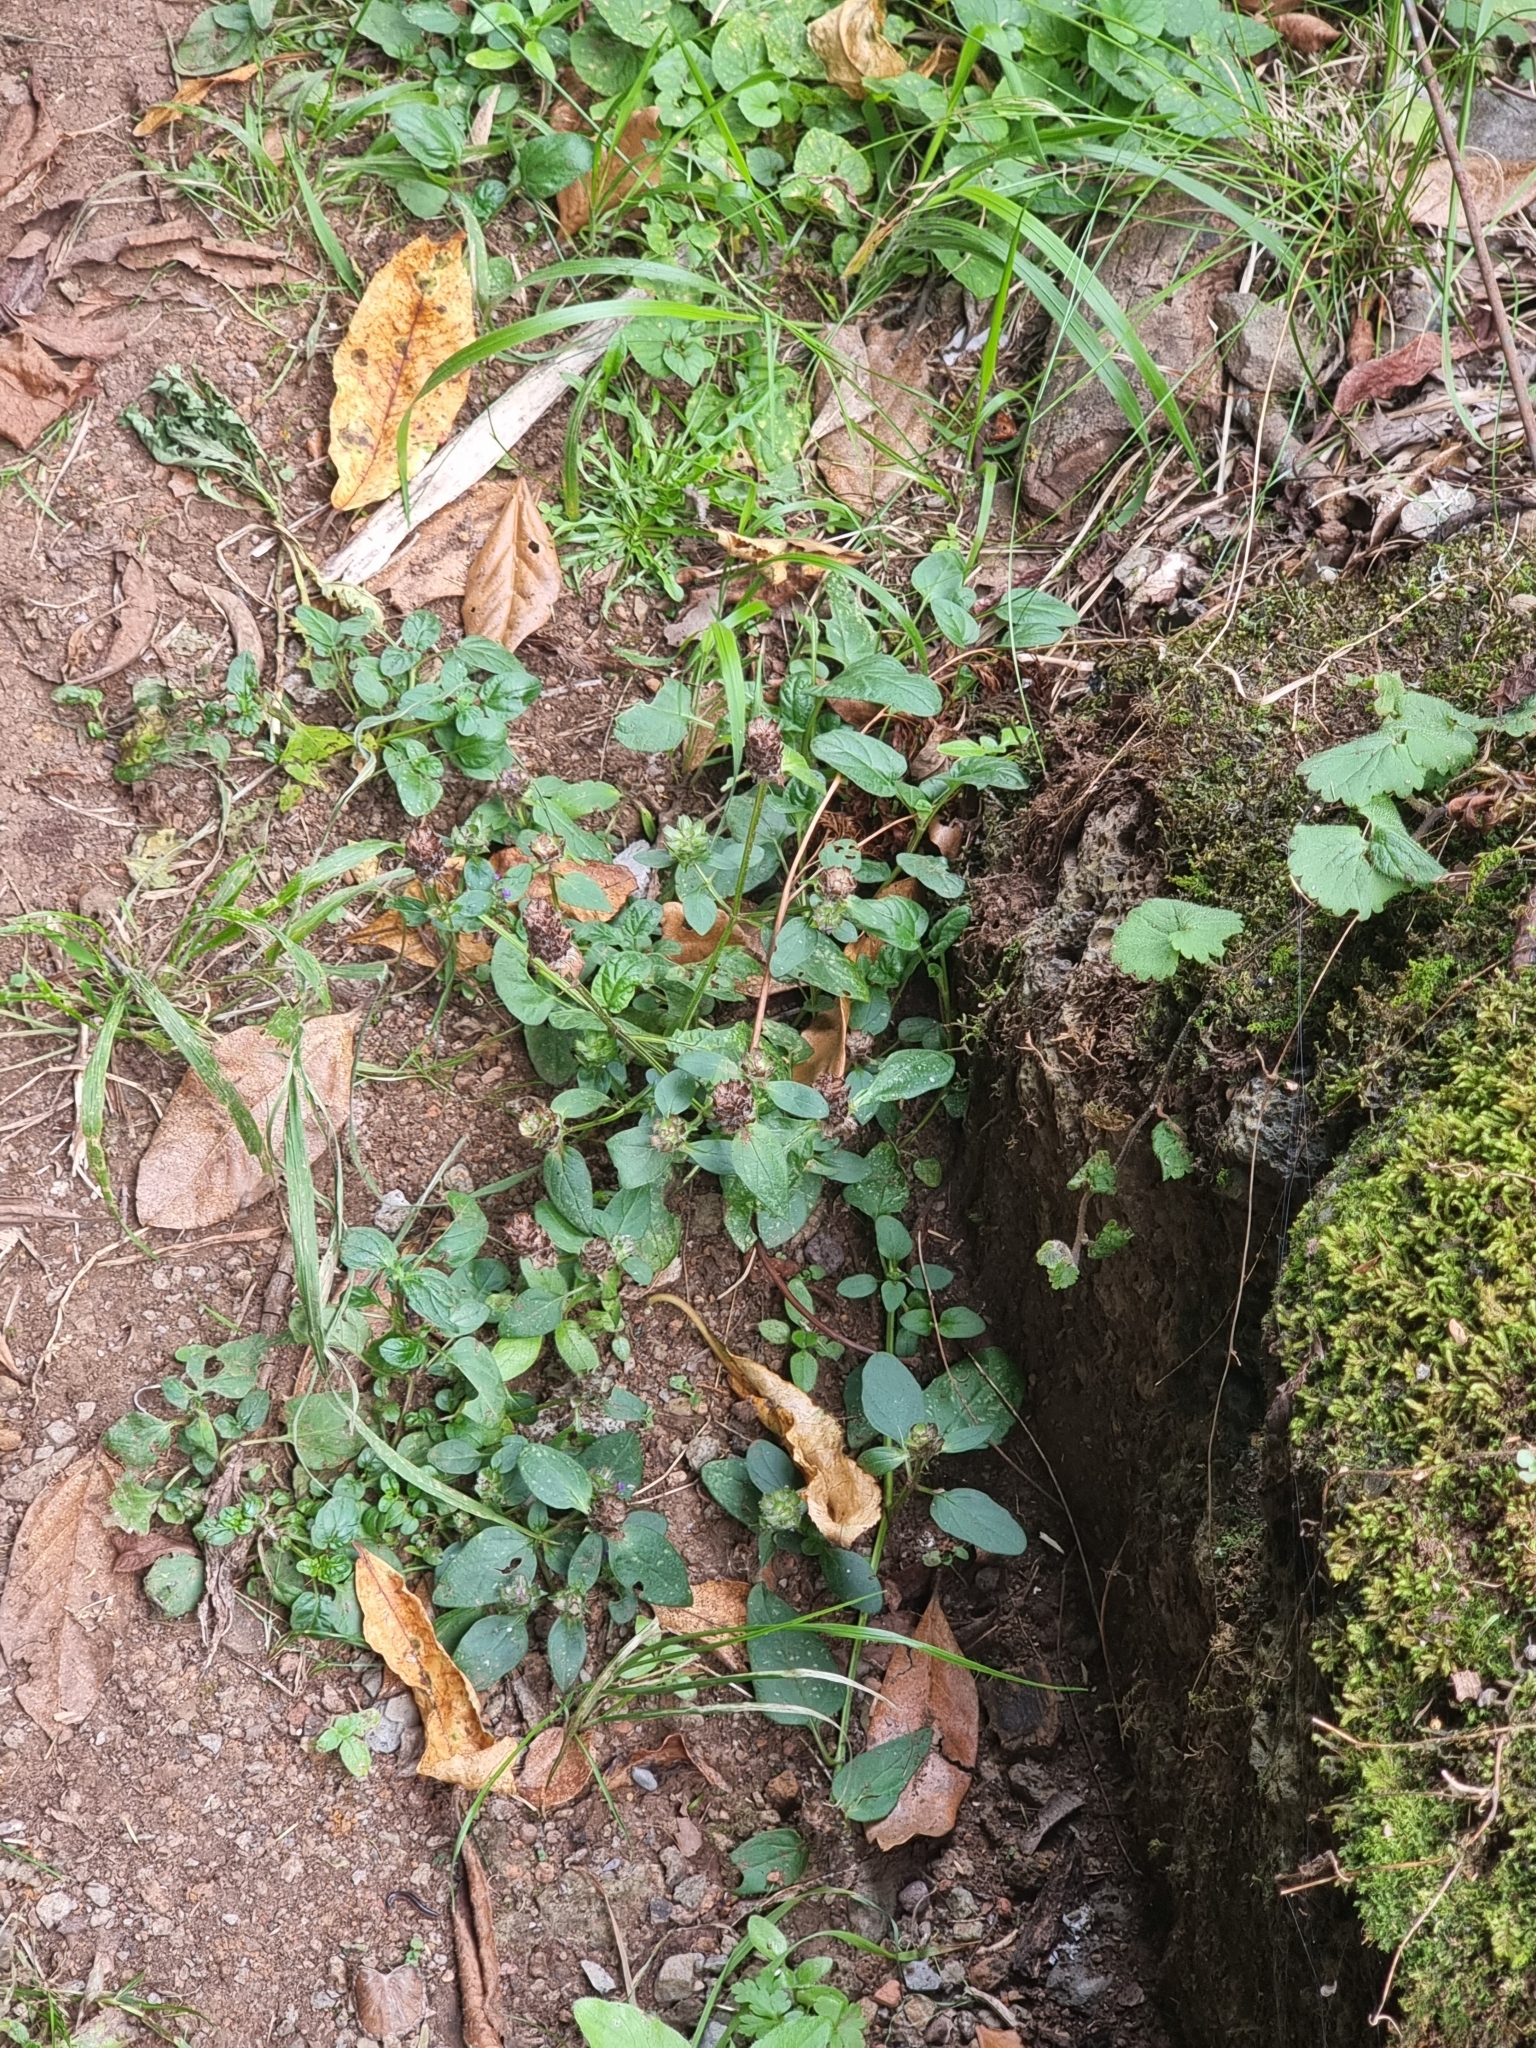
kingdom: Plantae
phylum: Tracheophyta
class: Magnoliopsida
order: Lamiales
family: Lamiaceae
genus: Prunella
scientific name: Prunella vulgaris
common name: Heal-all
